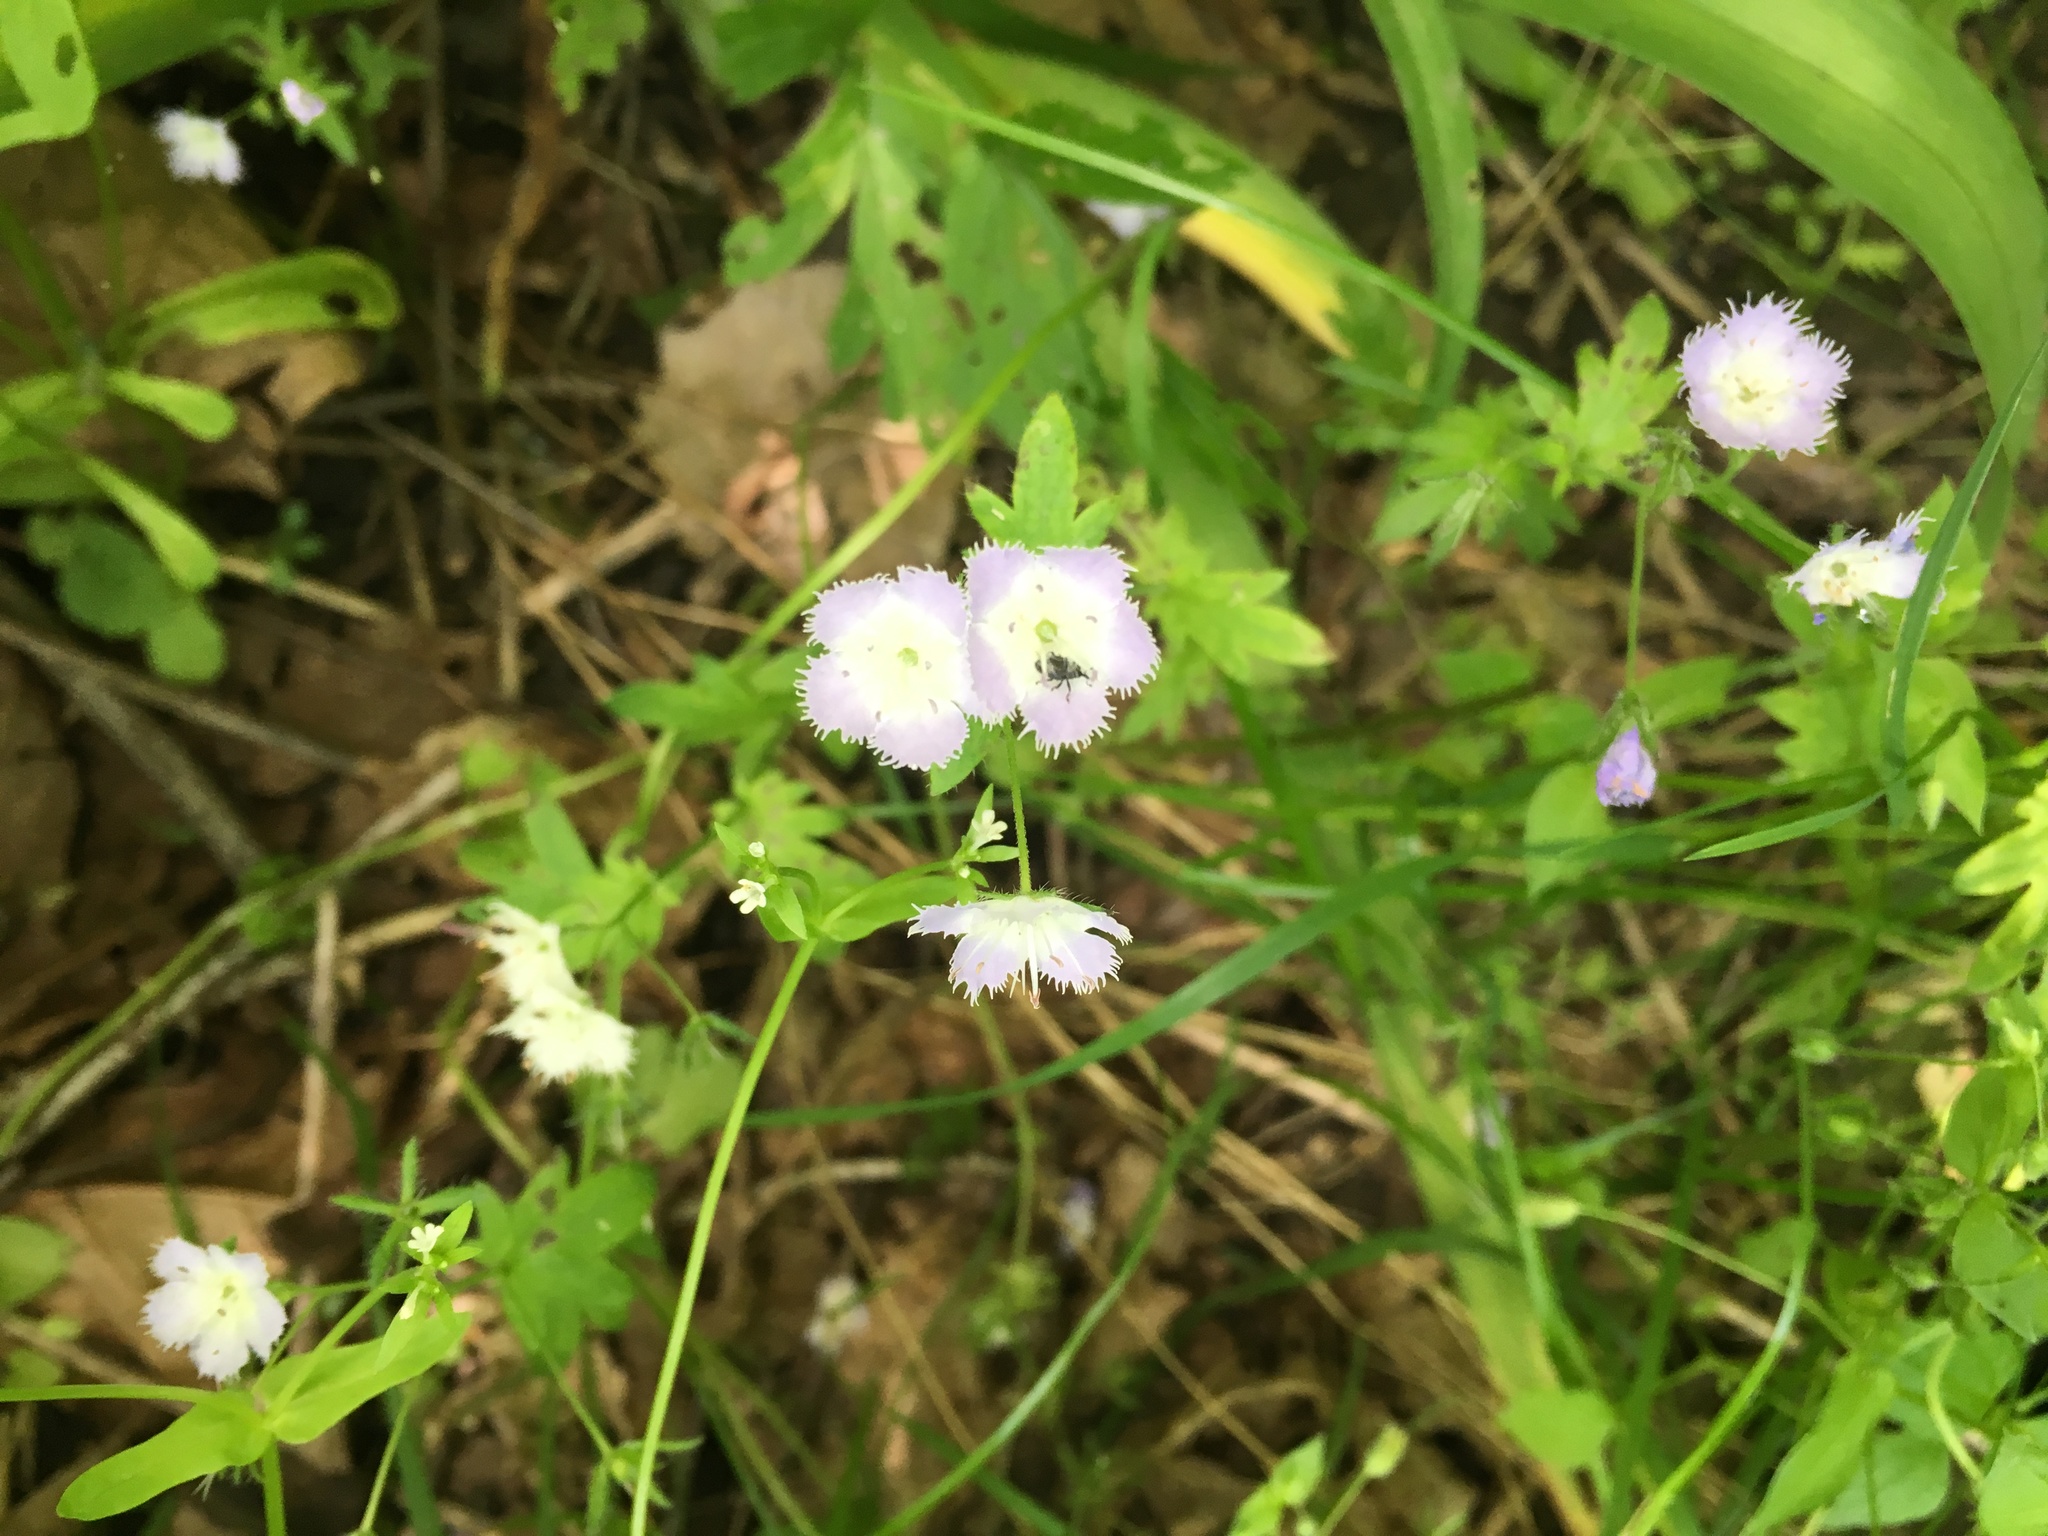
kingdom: Plantae
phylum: Tracheophyta
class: Magnoliopsida
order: Boraginales
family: Hydrophyllaceae
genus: Phacelia
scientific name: Phacelia purshii
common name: Miami-mist
